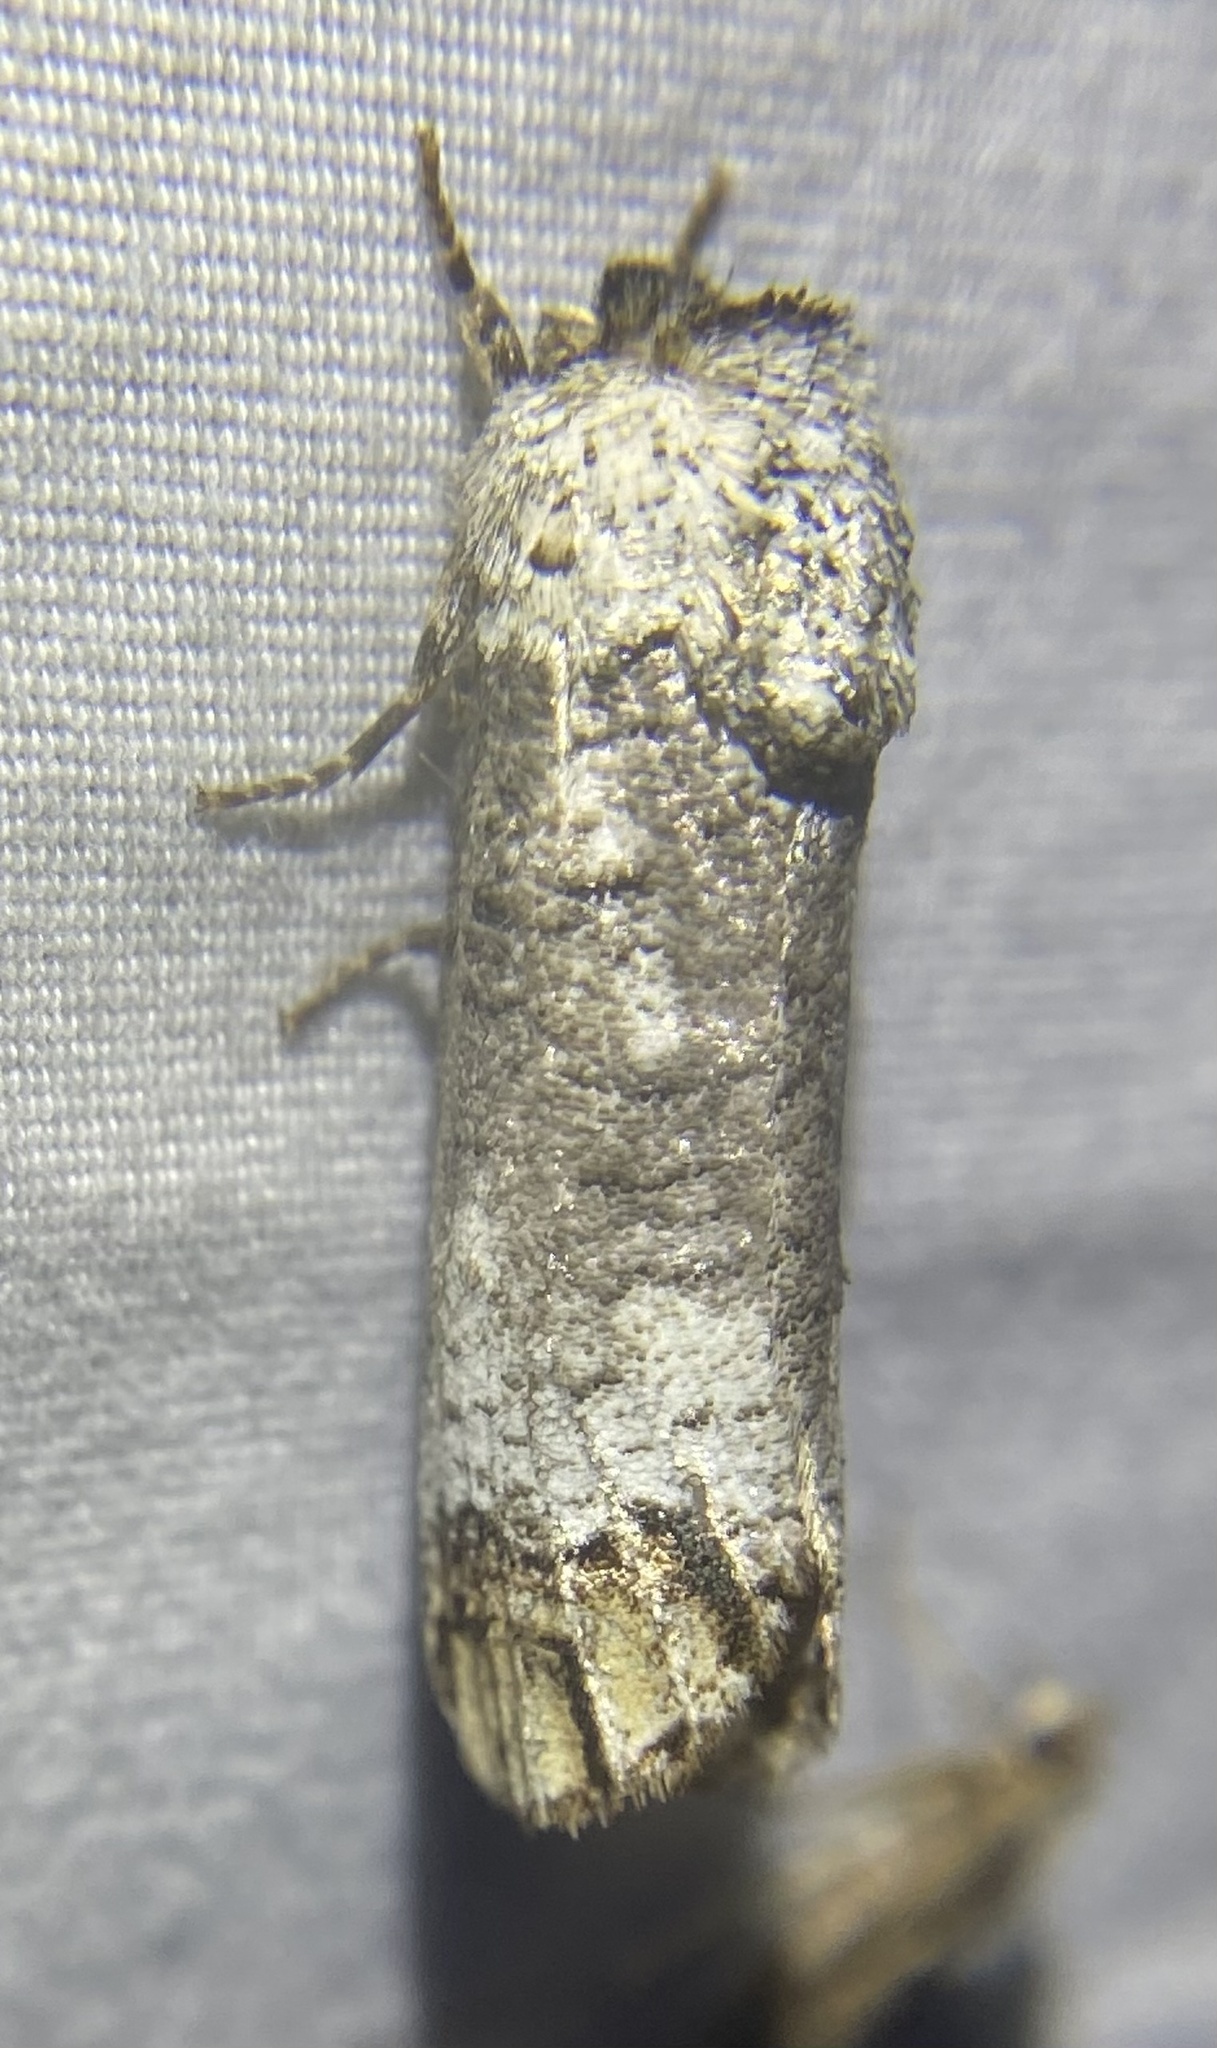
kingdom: Animalia
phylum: Arthropoda
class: Insecta
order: Lepidoptera
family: Cossidae
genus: Cossula
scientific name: Cossula magnifica
